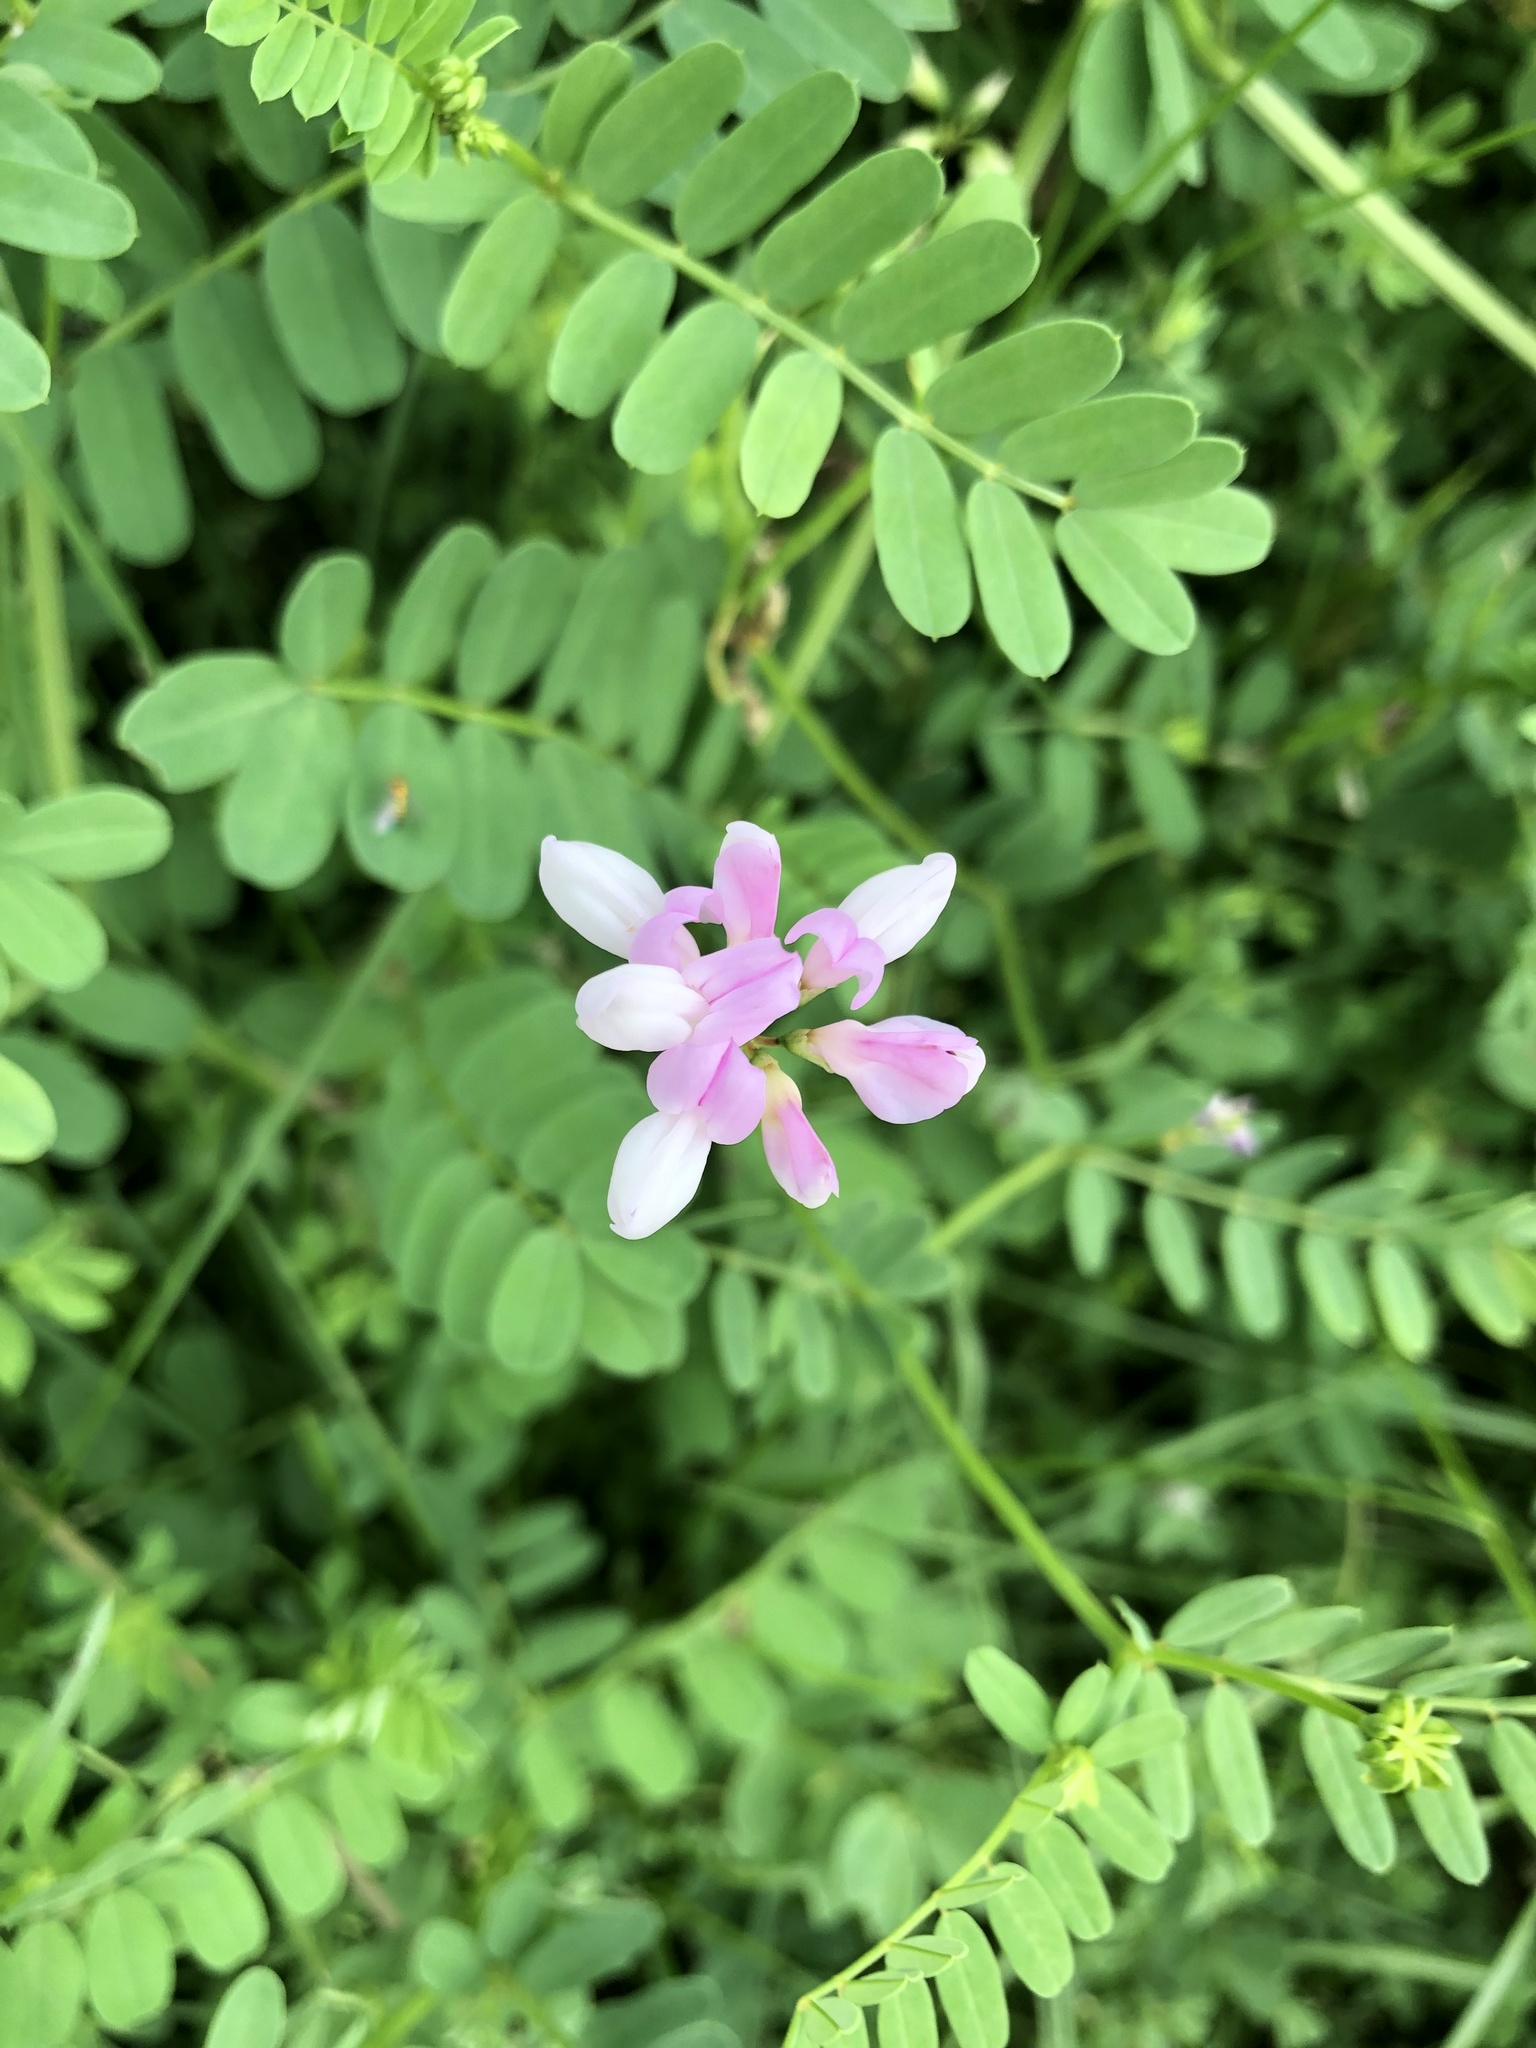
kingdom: Plantae
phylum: Tracheophyta
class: Magnoliopsida
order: Fabales
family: Fabaceae
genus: Coronilla
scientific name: Coronilla varia
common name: Crownvetch
